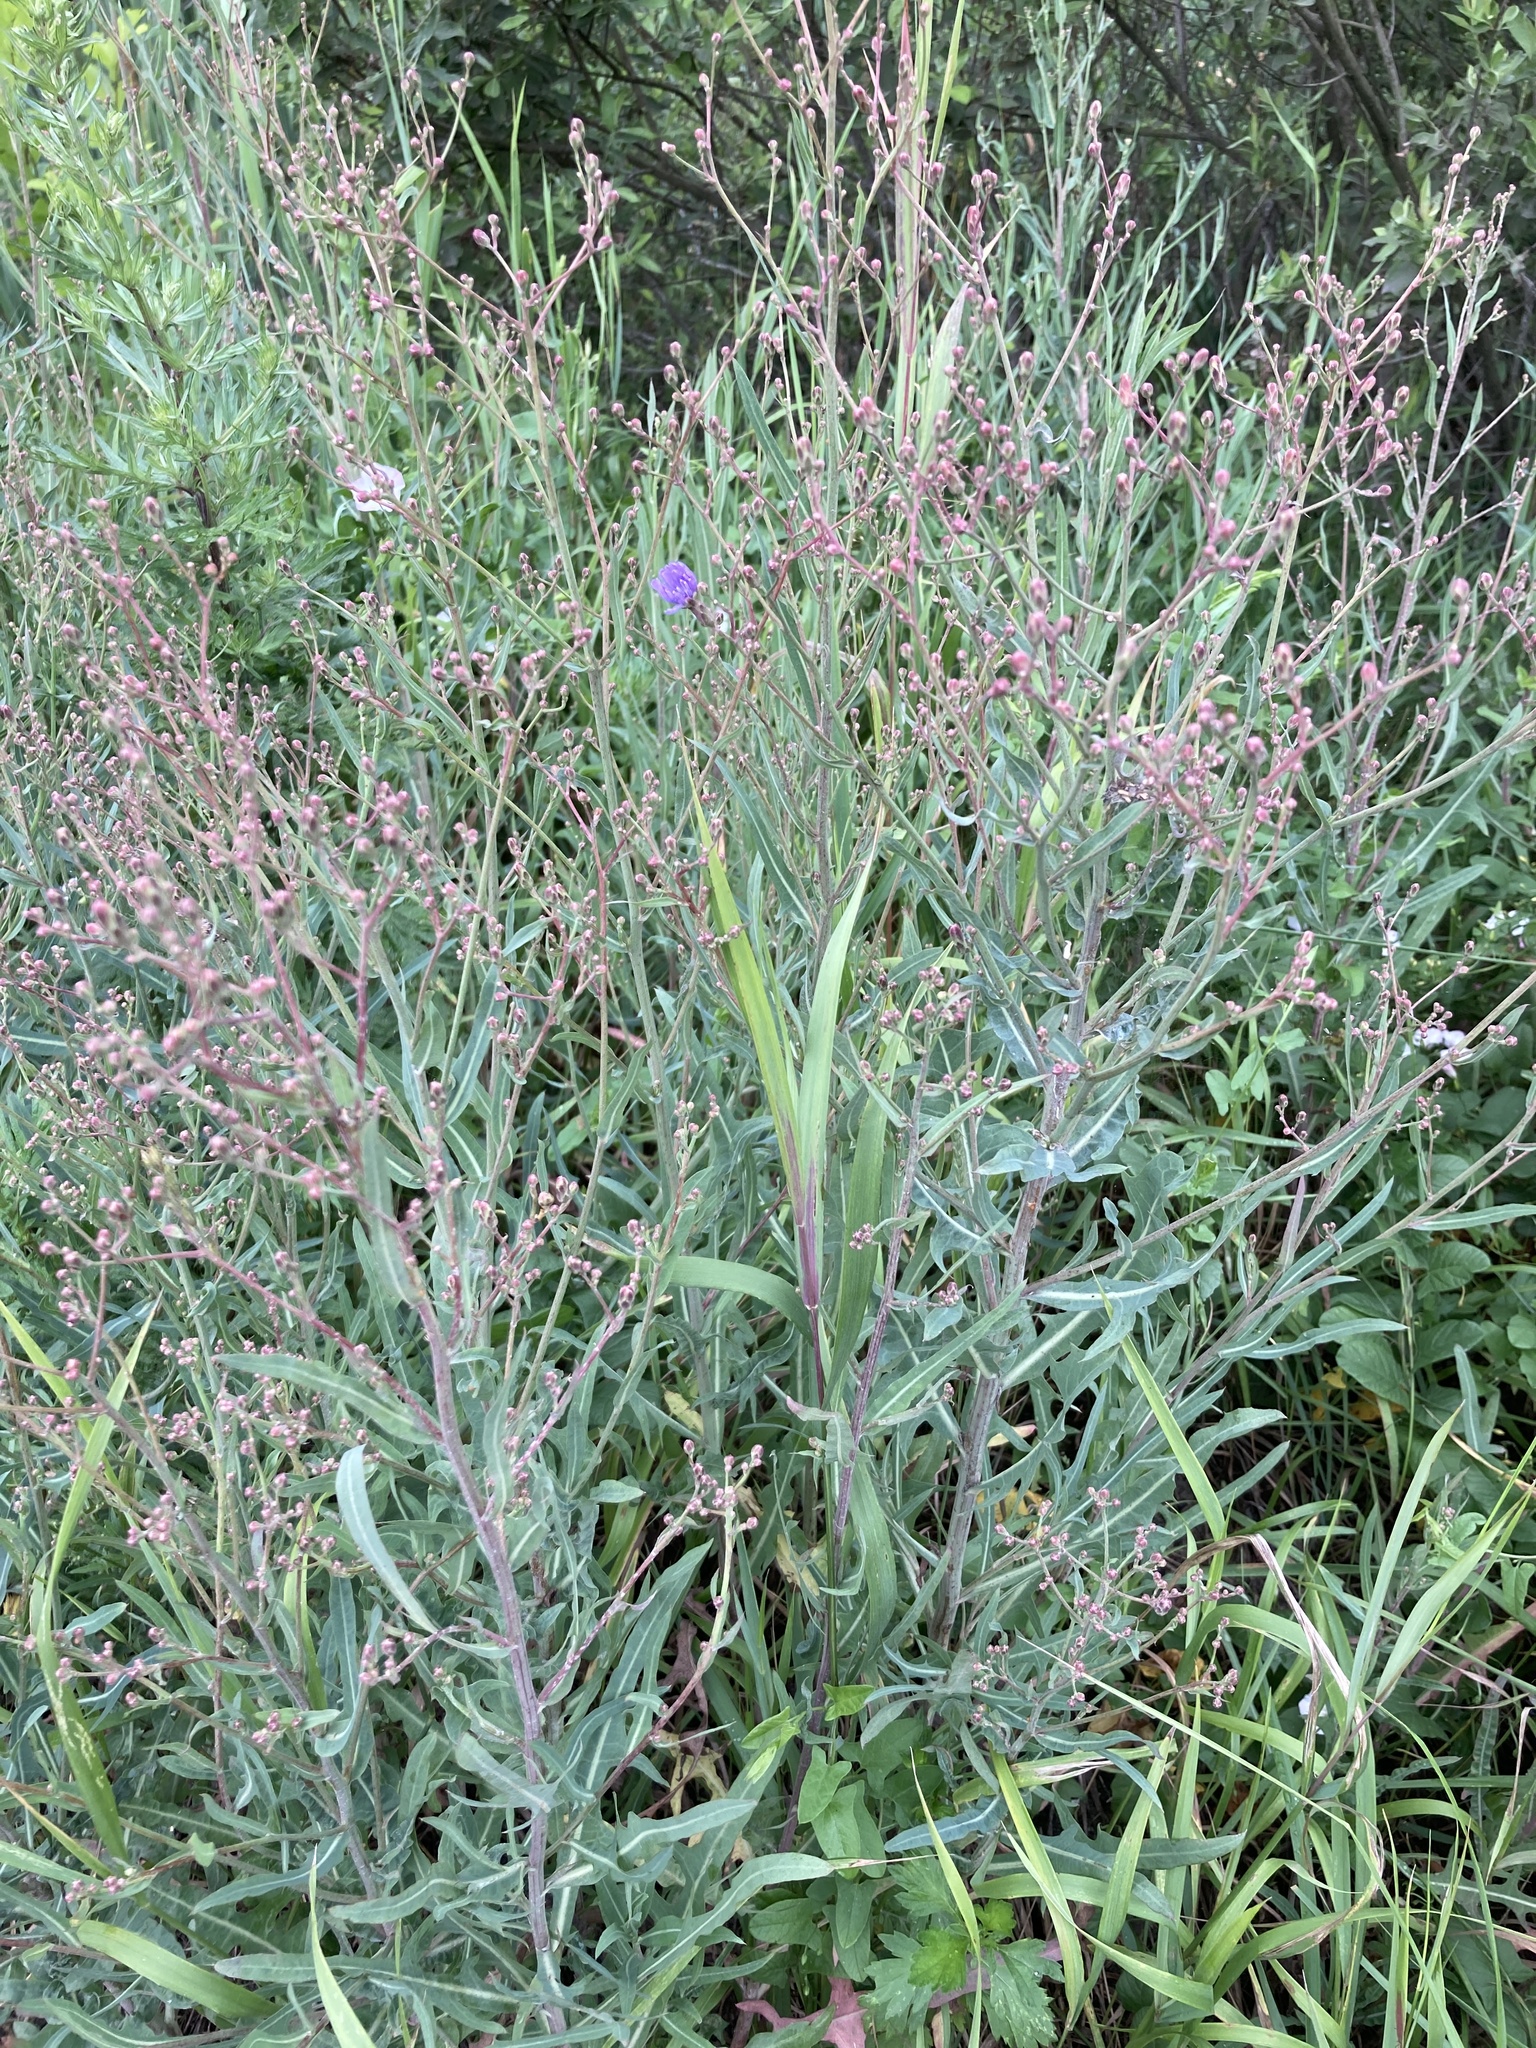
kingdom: Plantae
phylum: Tracheophyta
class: Magnoliopsida
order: Asterales
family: Asteraceae
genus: Lactuca
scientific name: Lactuca tatarica
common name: Blue lettuce
